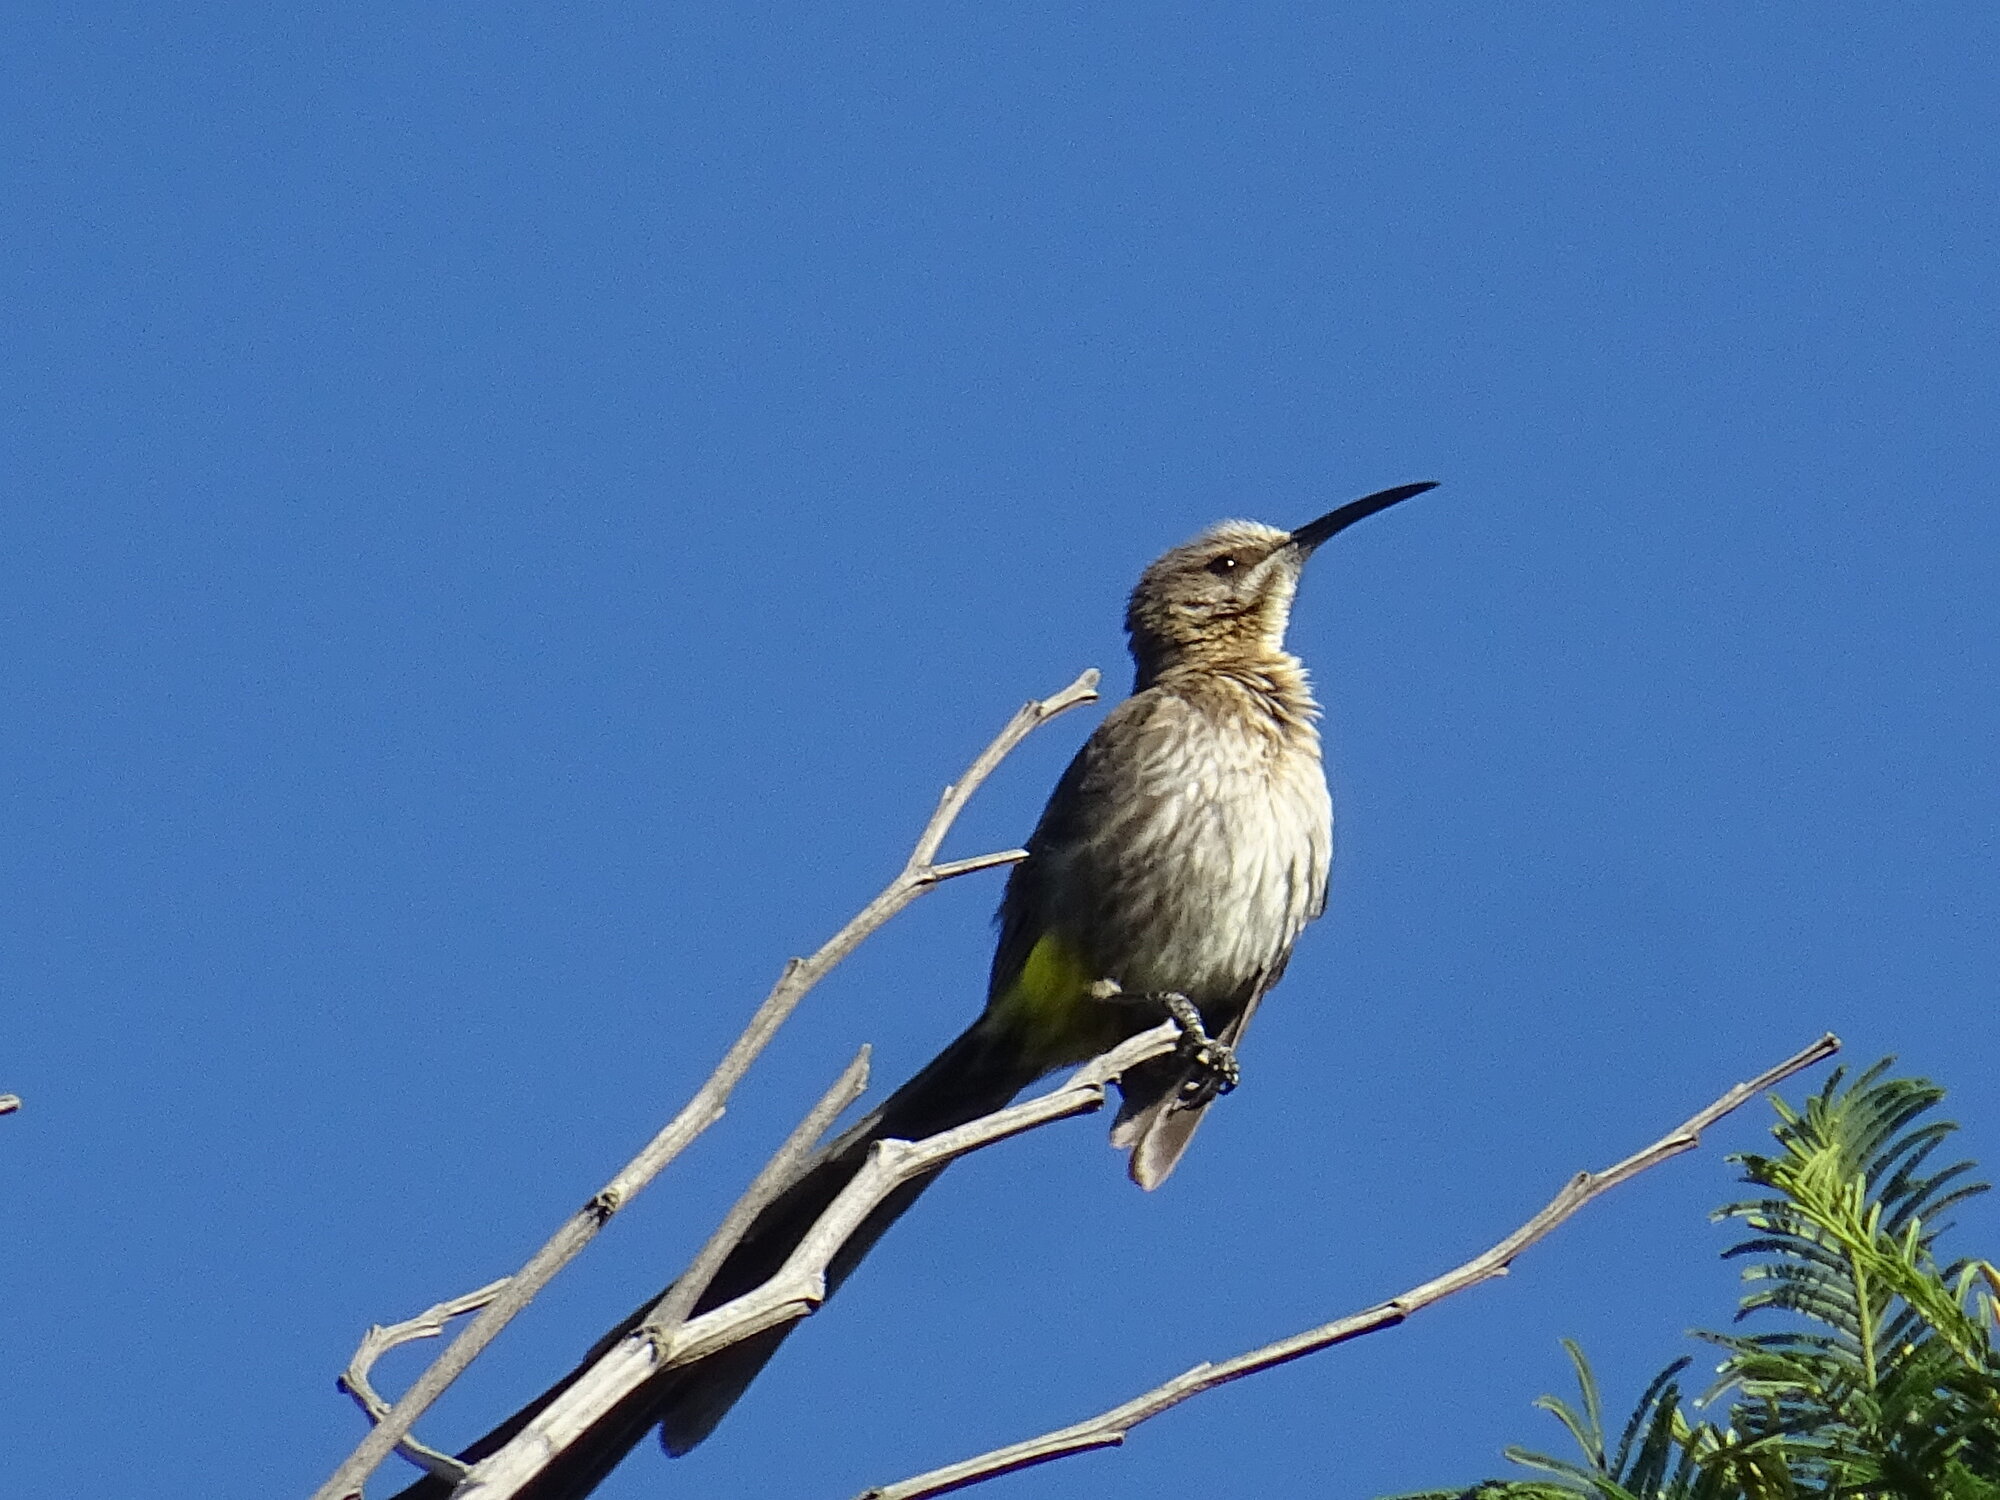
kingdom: Animalia
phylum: Chordata
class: Aves
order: Passeriformes
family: Promeropidae
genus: Promerops
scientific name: Promerops cafer
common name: Cape sugarbird
